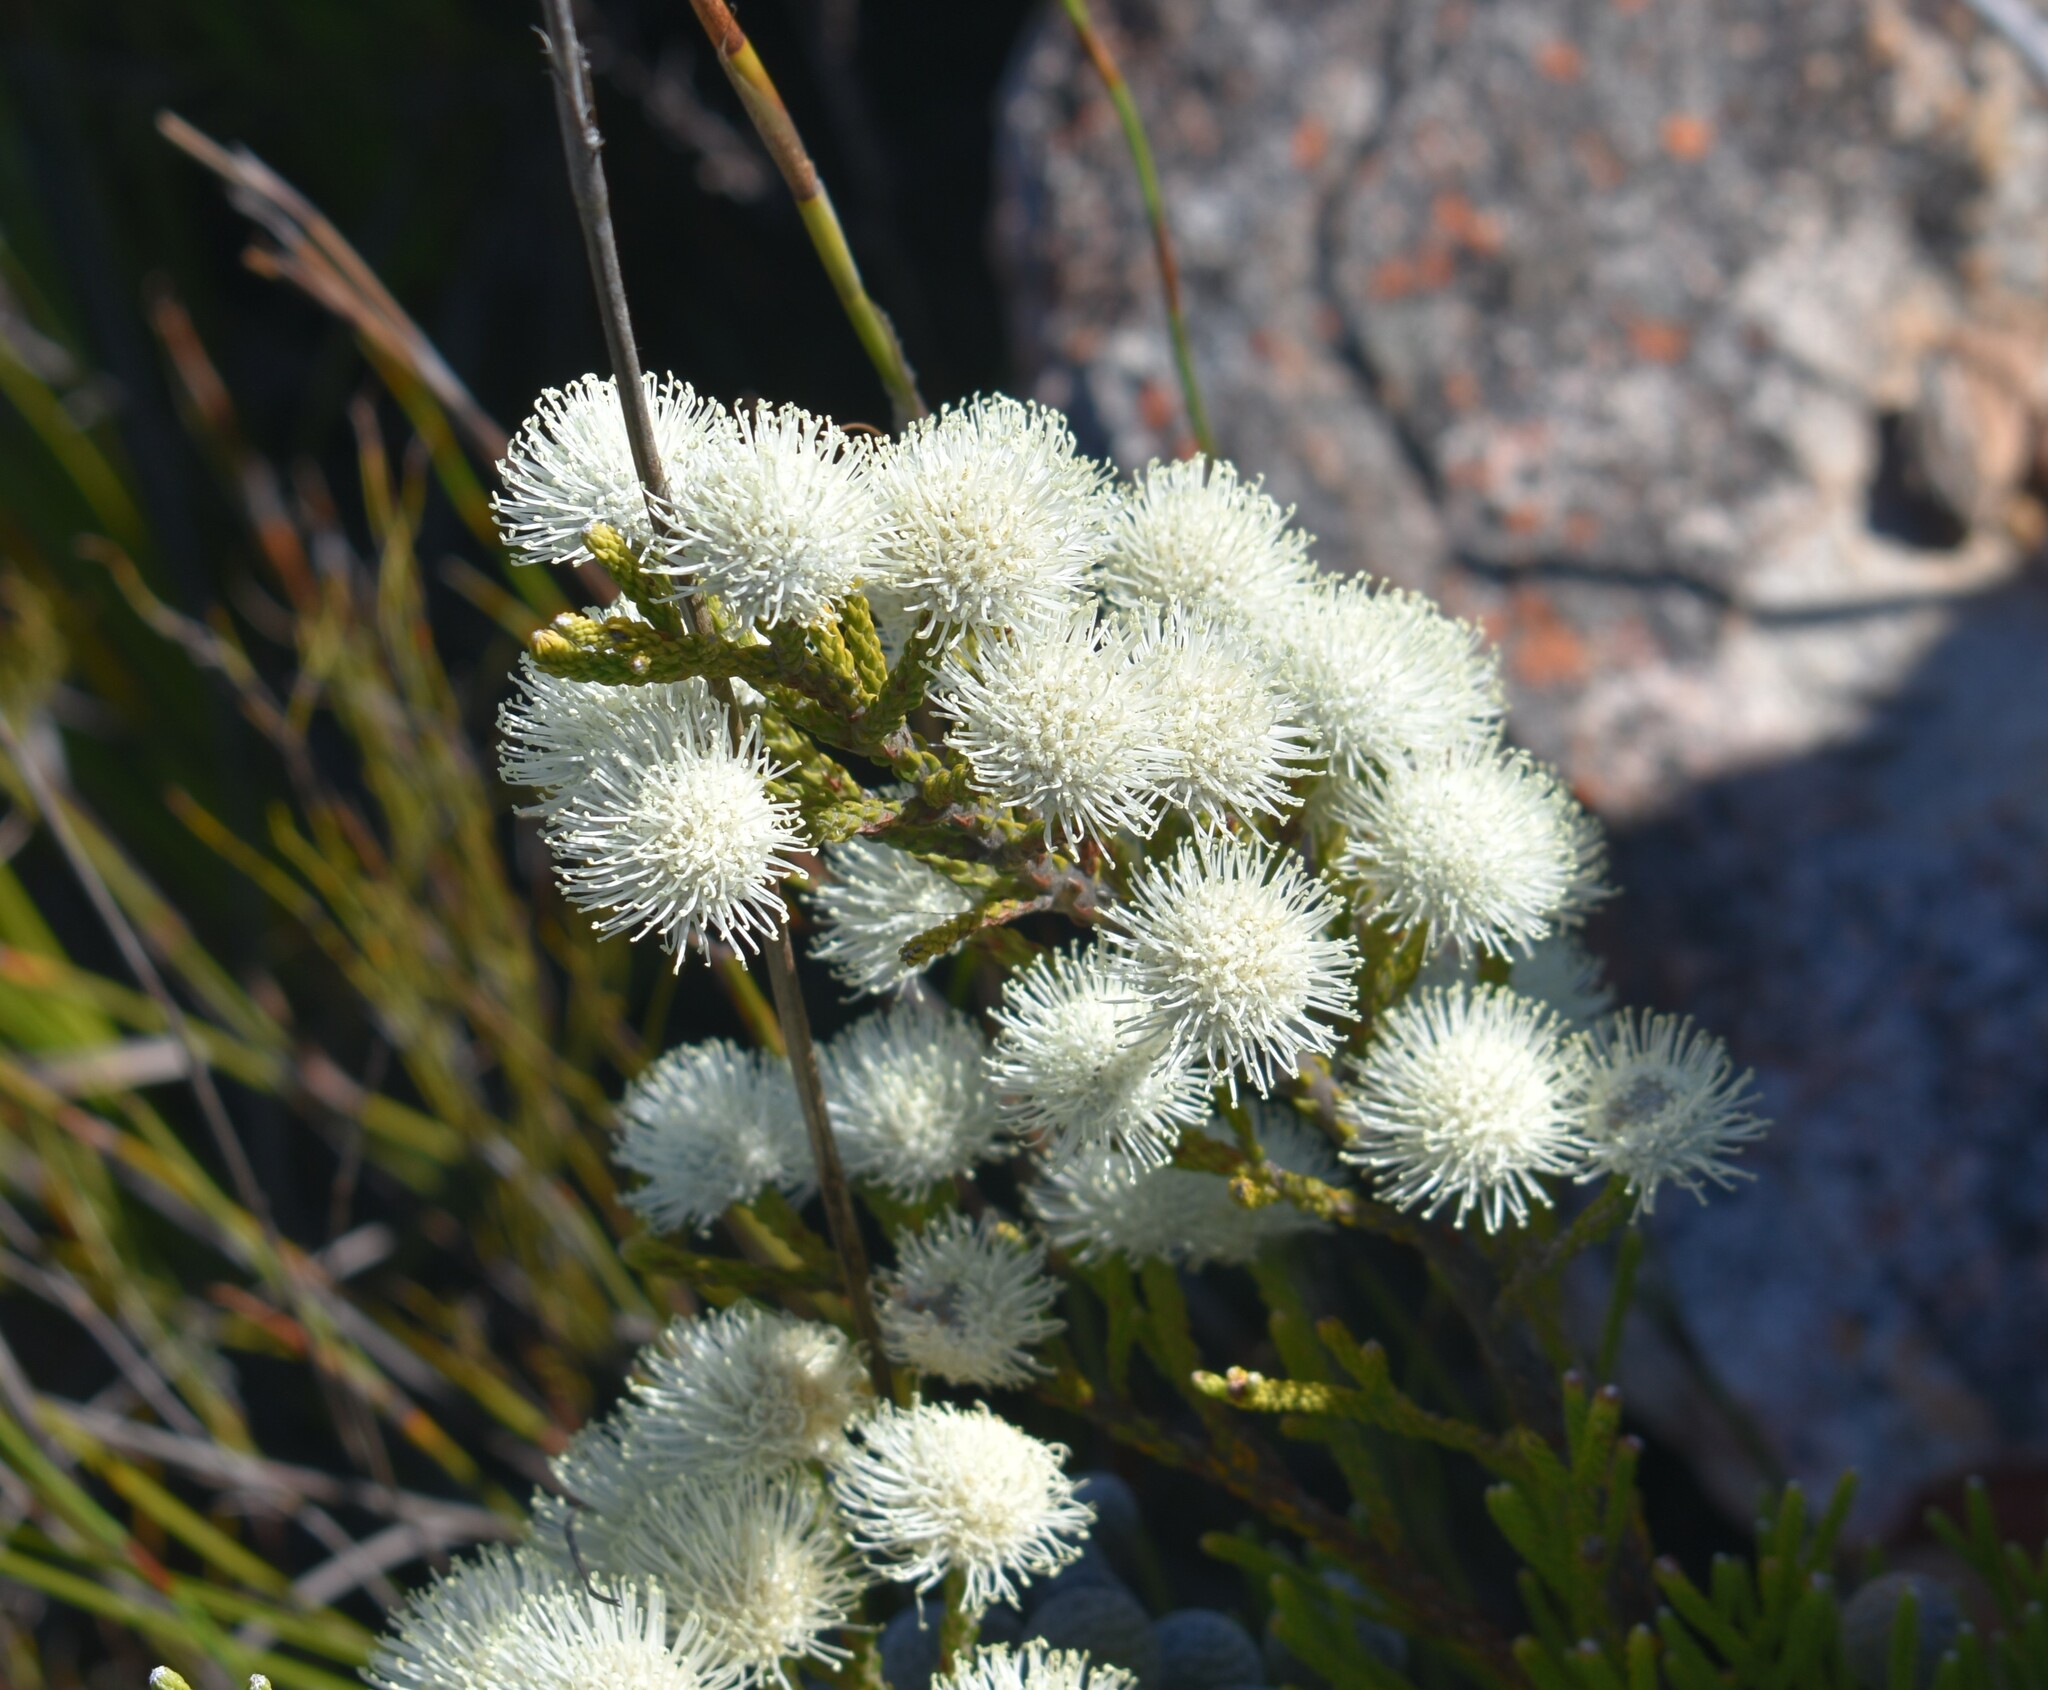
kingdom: Plantae
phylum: Tracheophyta
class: Magnoliopsida
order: Bruniales
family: Bruniaceae
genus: Brunia
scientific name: Brunia noduliflora
